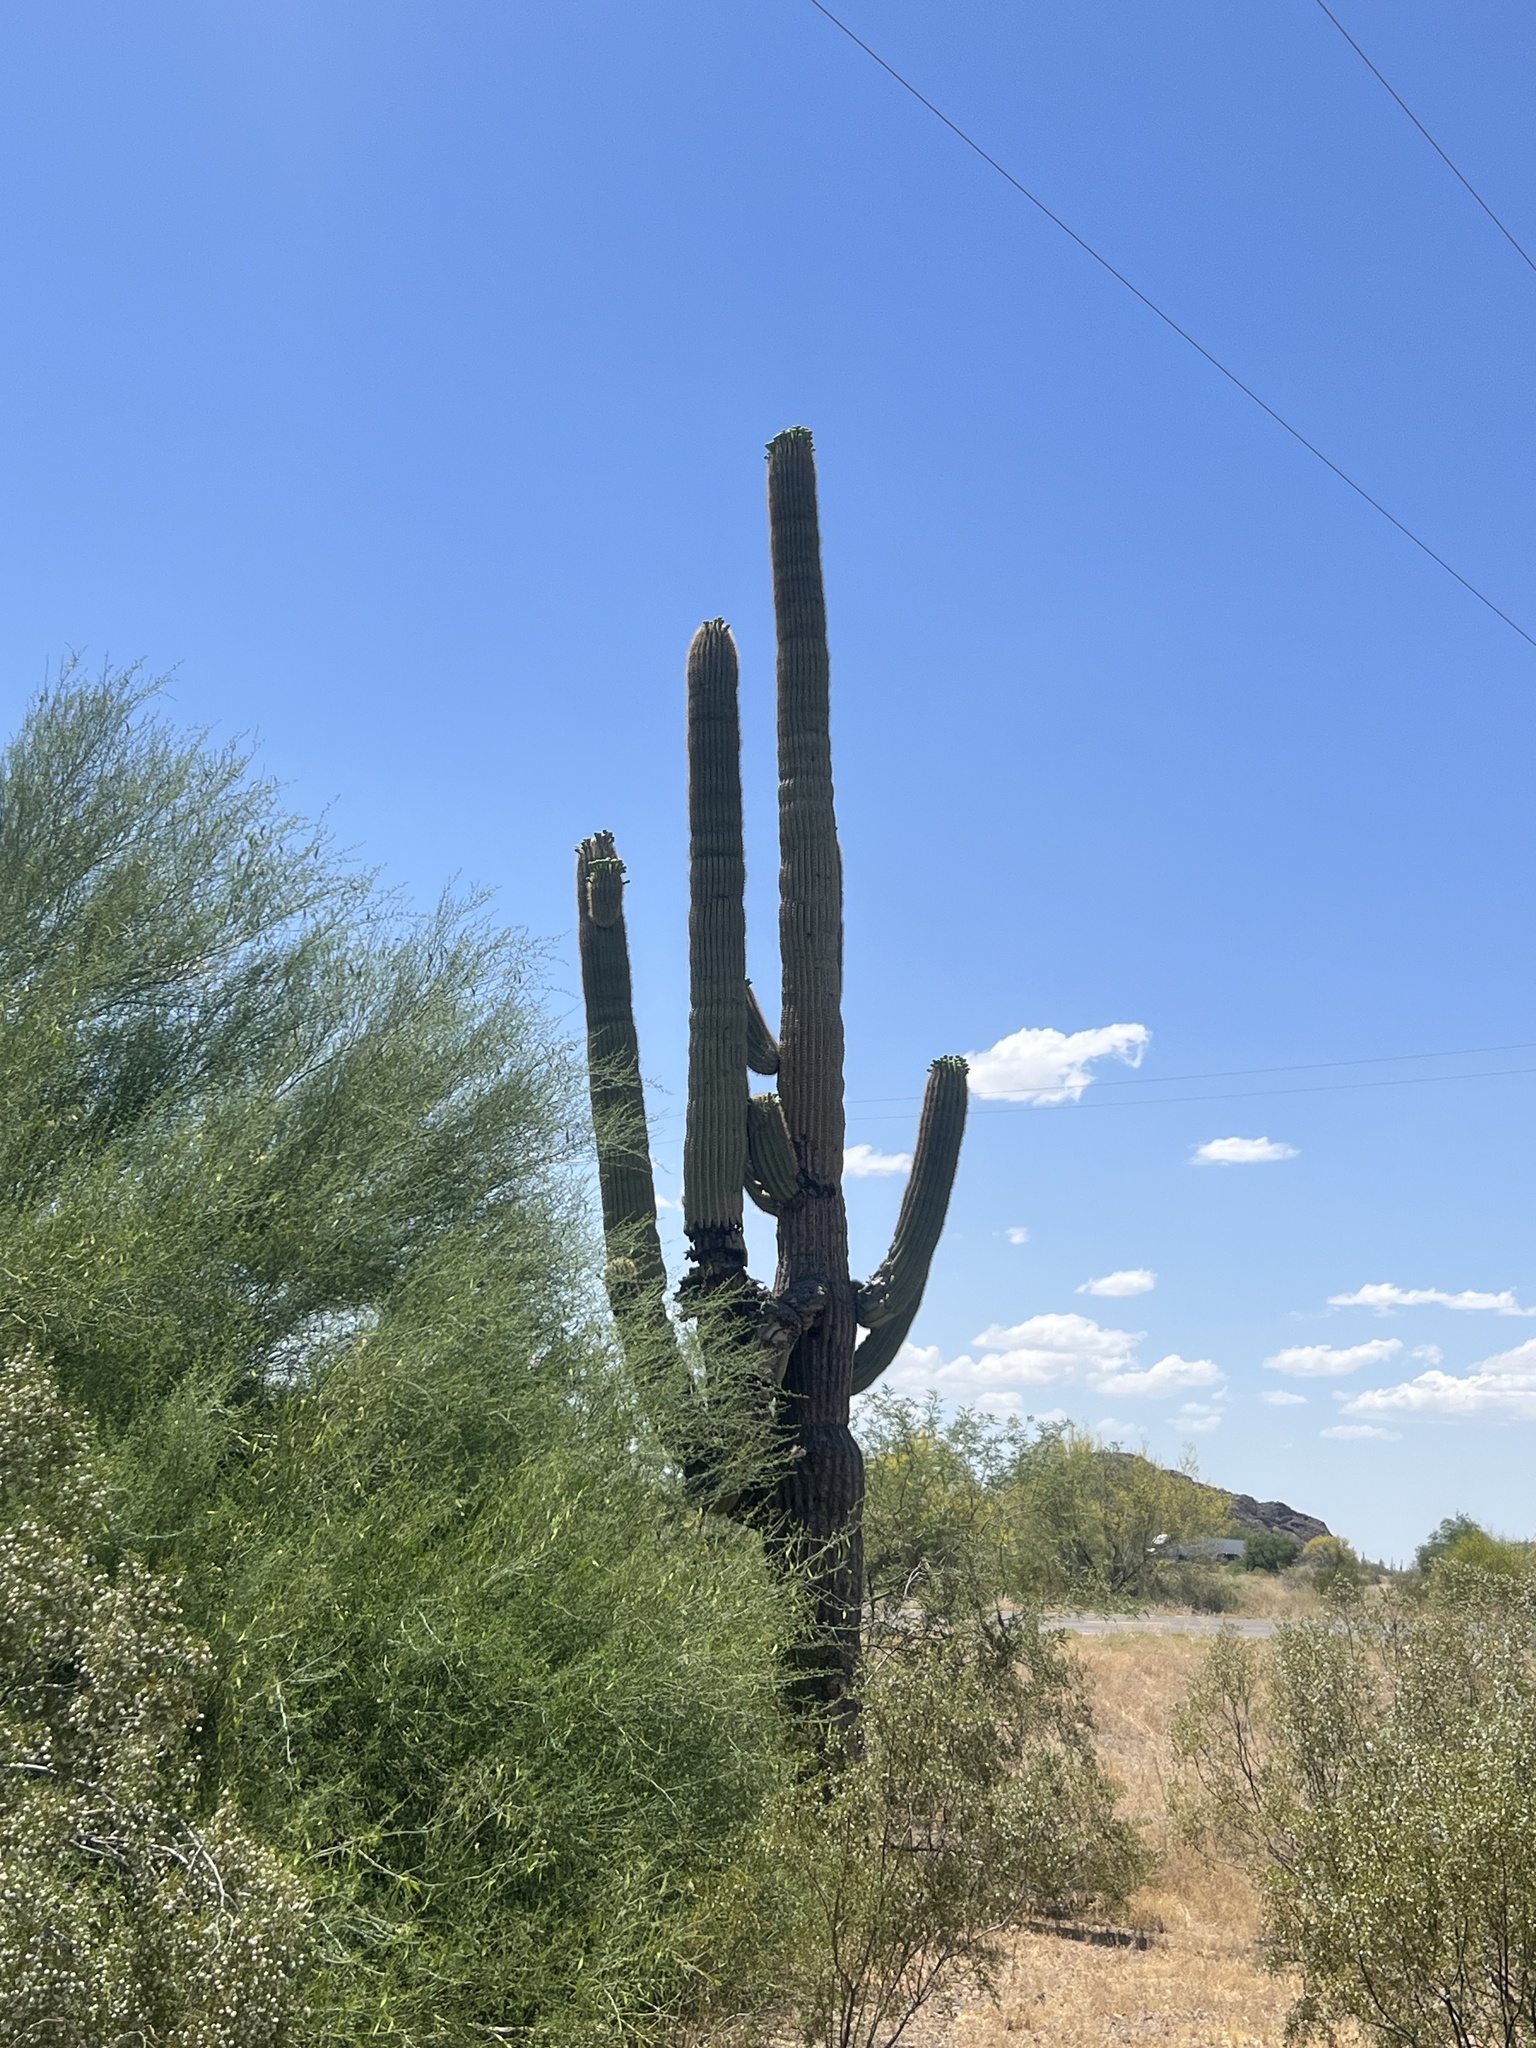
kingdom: Plantae
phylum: Tracheophyta
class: Magnoliopsida
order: Caryophyllales
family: Cactaceae
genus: Carnegiea
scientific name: Carnegiea gigantea
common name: Saguaro
